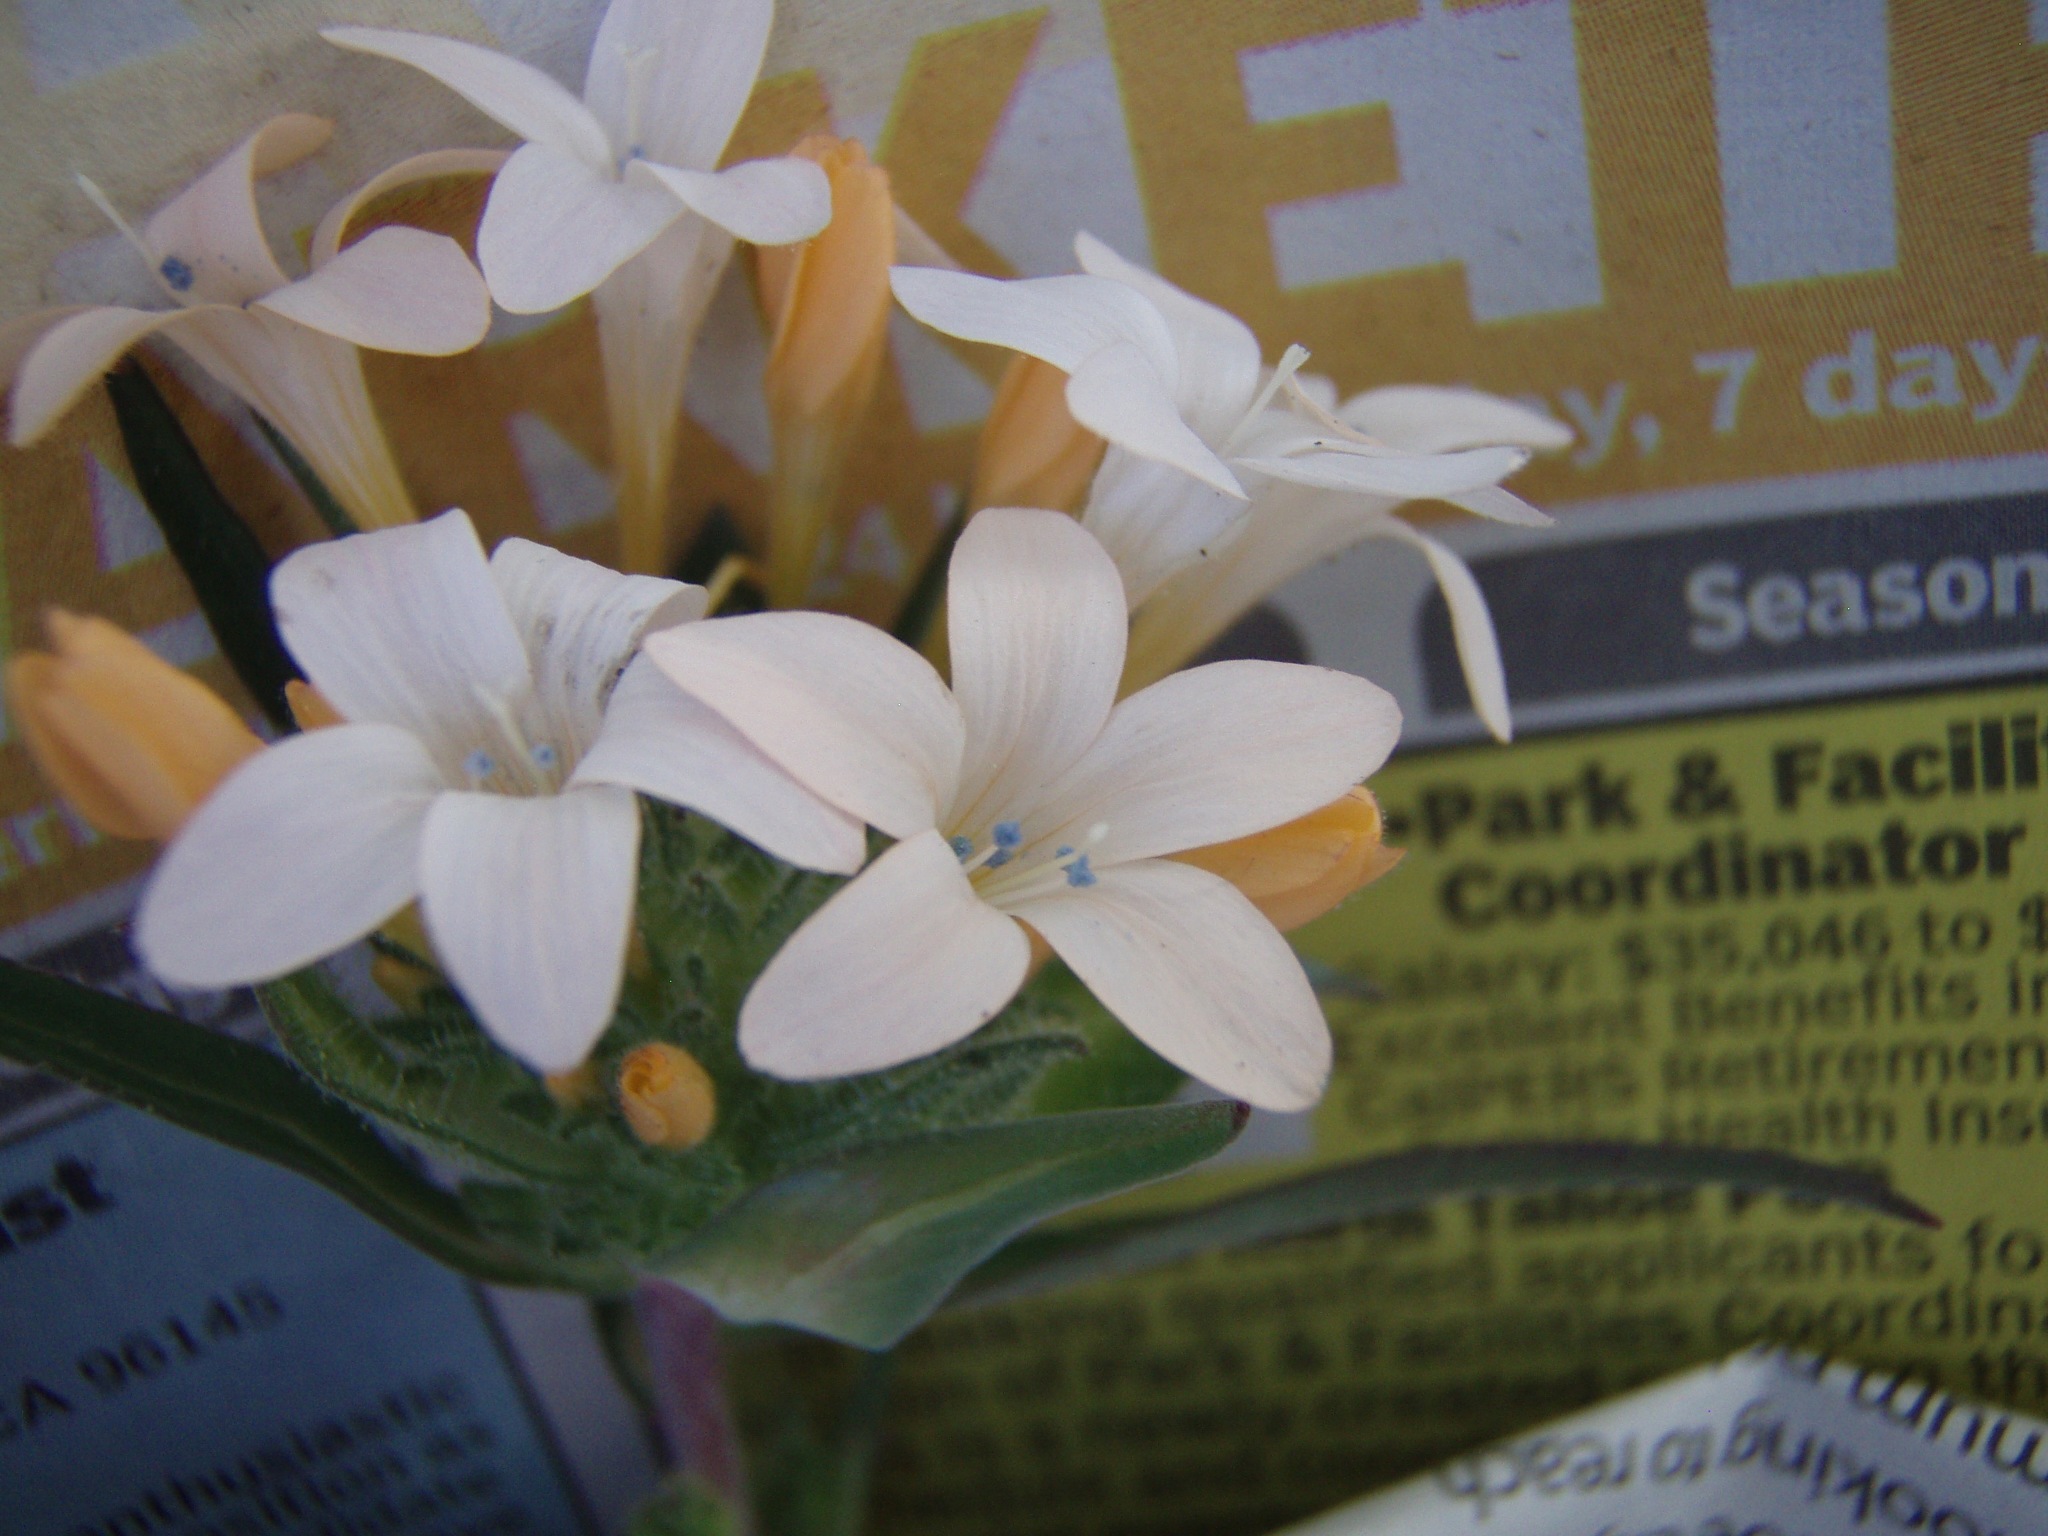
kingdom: Plantae
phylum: Tracheophyta
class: Magnoliopsida
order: Ericales
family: Polemoniaceae
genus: Collomia
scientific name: Collomia grandiflora
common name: California strawflower
